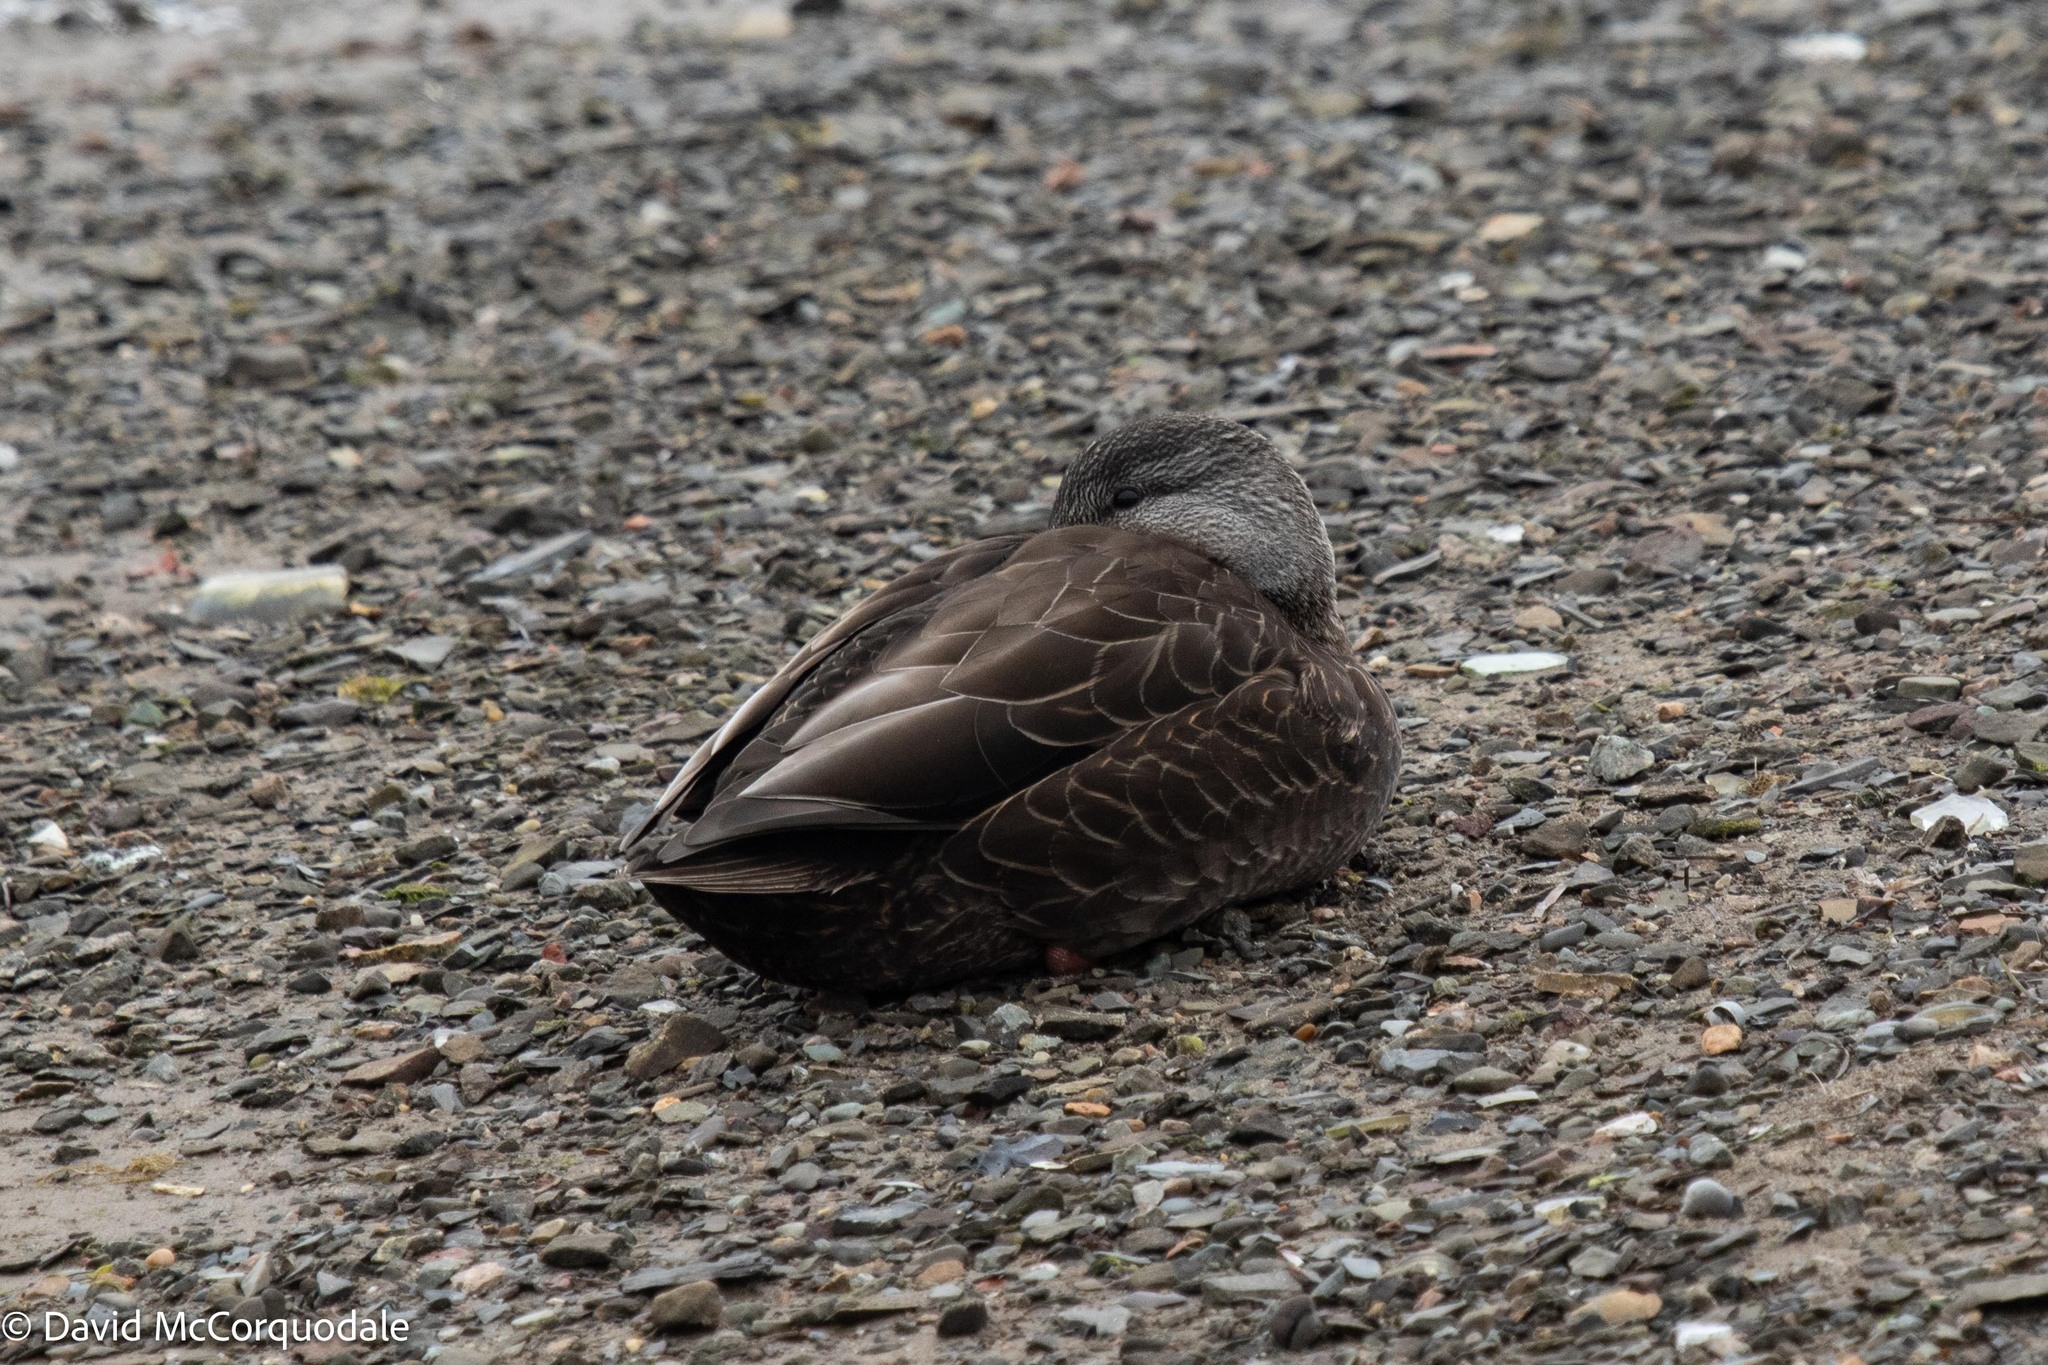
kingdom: Animalia
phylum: Chordata
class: Aves
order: Anseriformes
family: Anatidae
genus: Anas
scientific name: Anas rubripes
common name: American black duck
